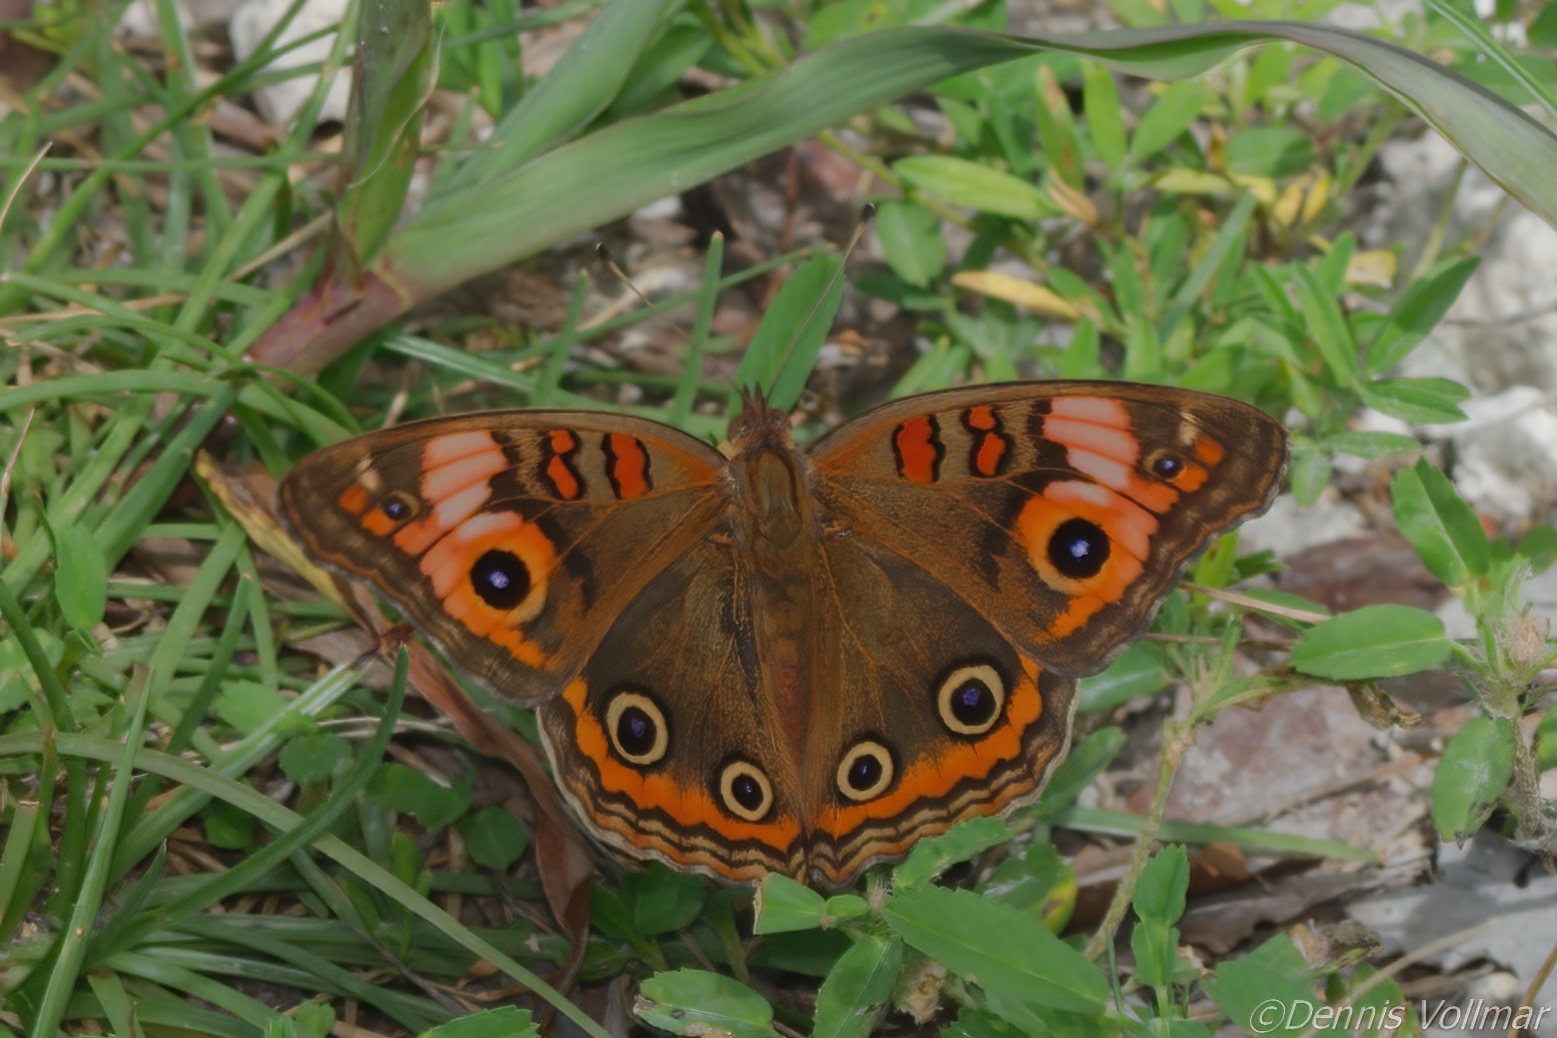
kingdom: Animalia
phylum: Arthropoda
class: Insecta
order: Lepidoptera
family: Nymphalidae
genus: Junonia
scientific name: Junonia neildi
